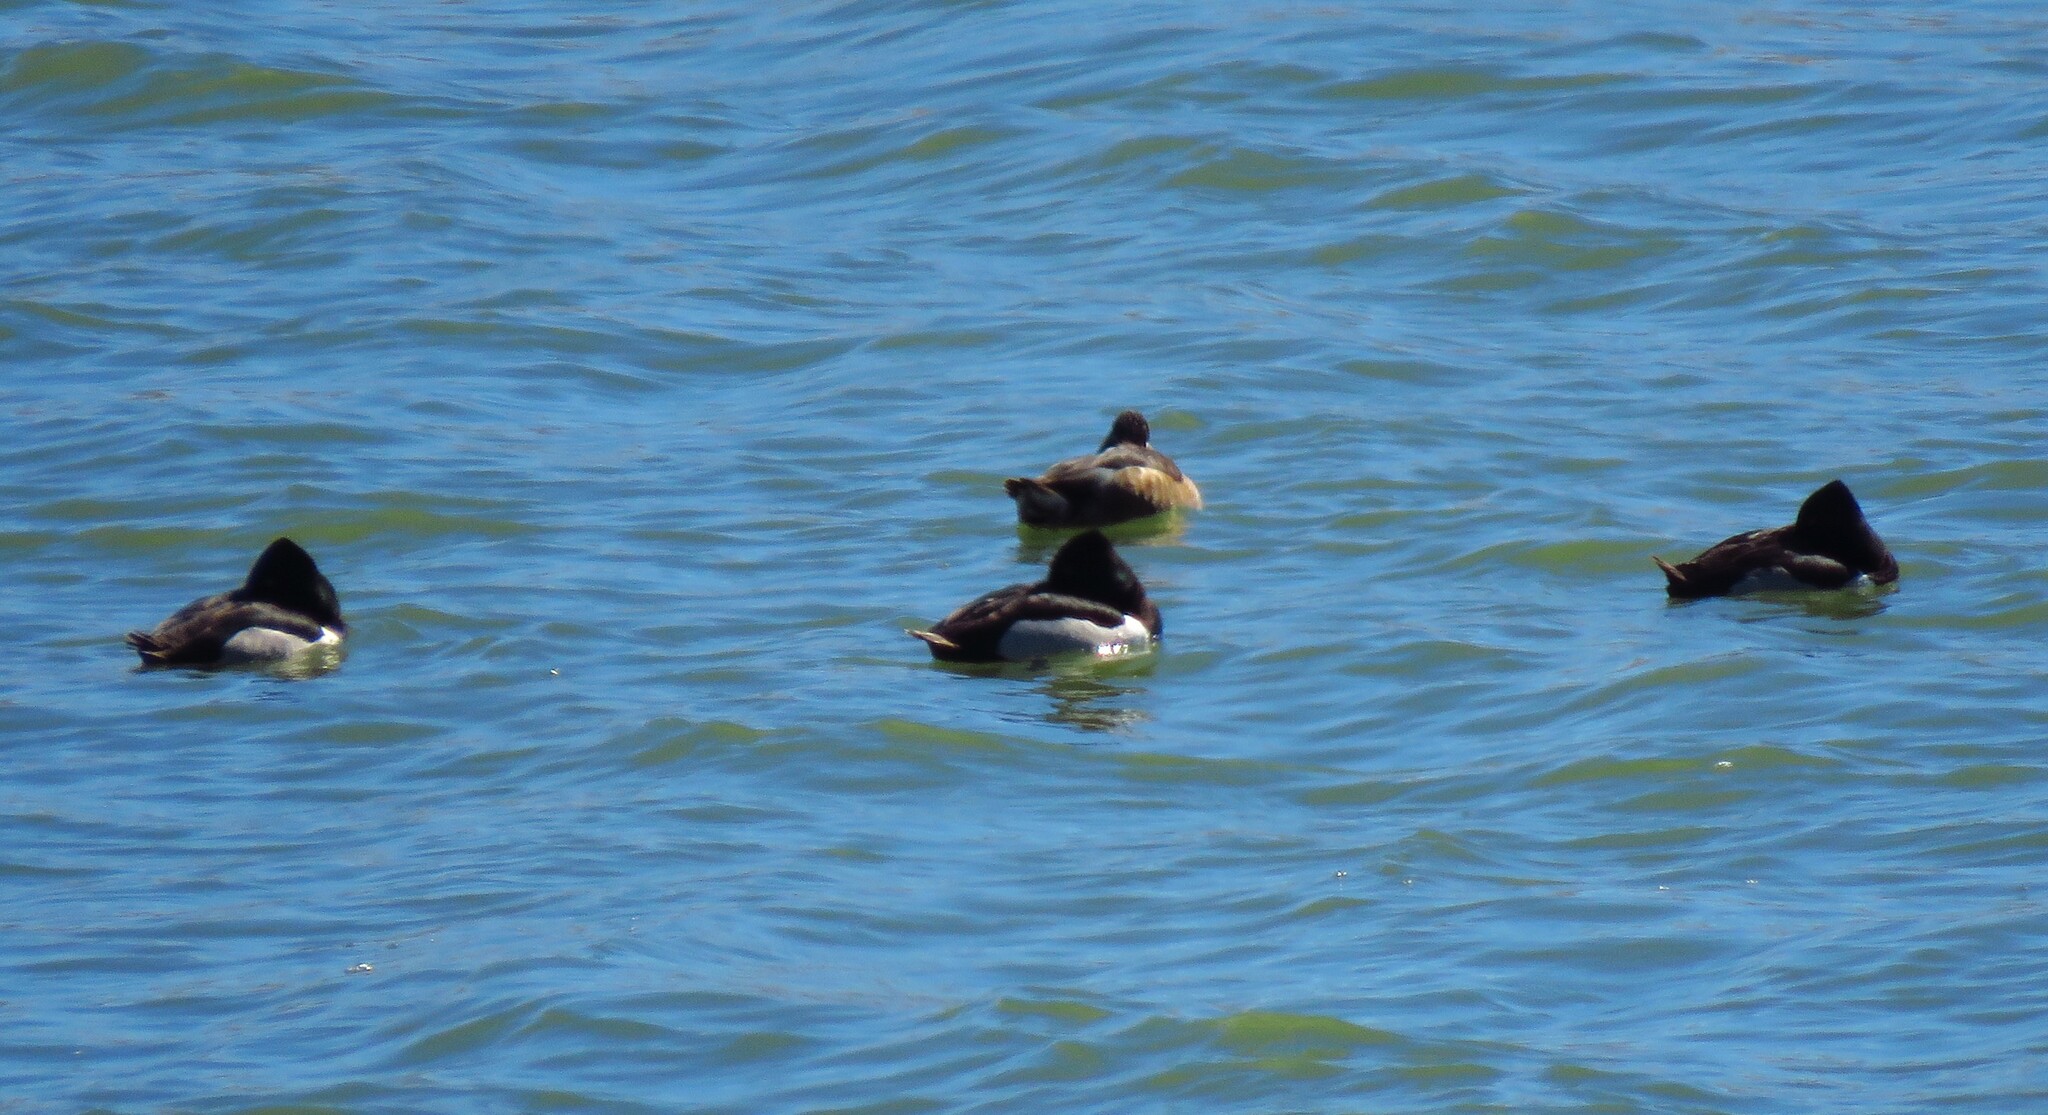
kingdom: Animalia
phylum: Chordata
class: Aves
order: Anseriformes
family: Anatidae
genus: Aythya
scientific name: Aythya collaris
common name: Ring-necked duck
